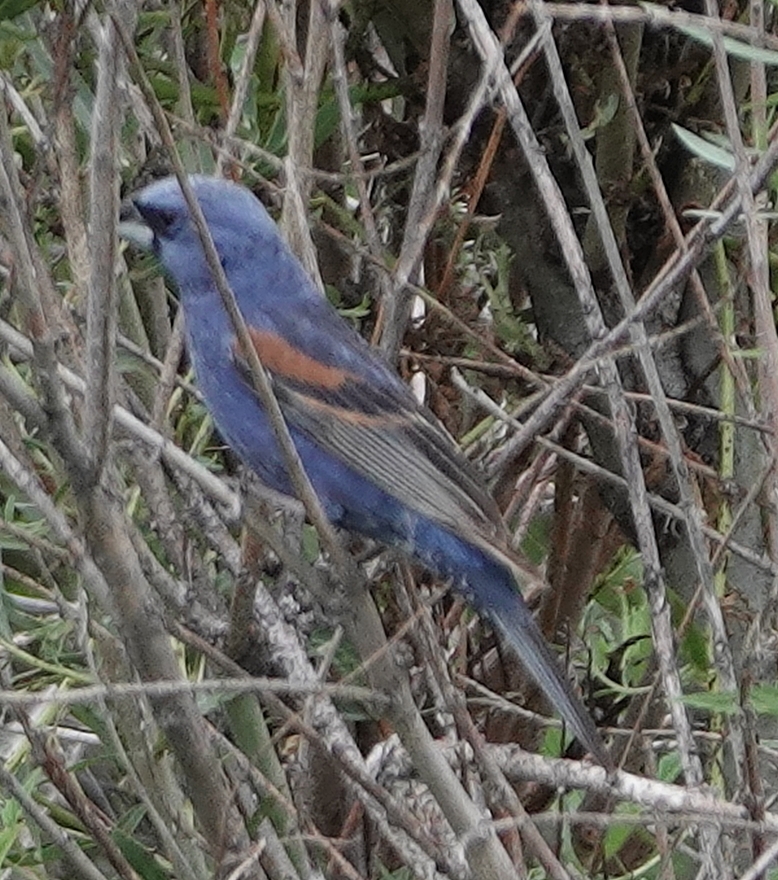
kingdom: Animalia
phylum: Chordata
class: Aves
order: Passeriformes
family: Cardinalidae
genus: Passerina
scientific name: Passerina caerulea
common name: Blue grosbeak
